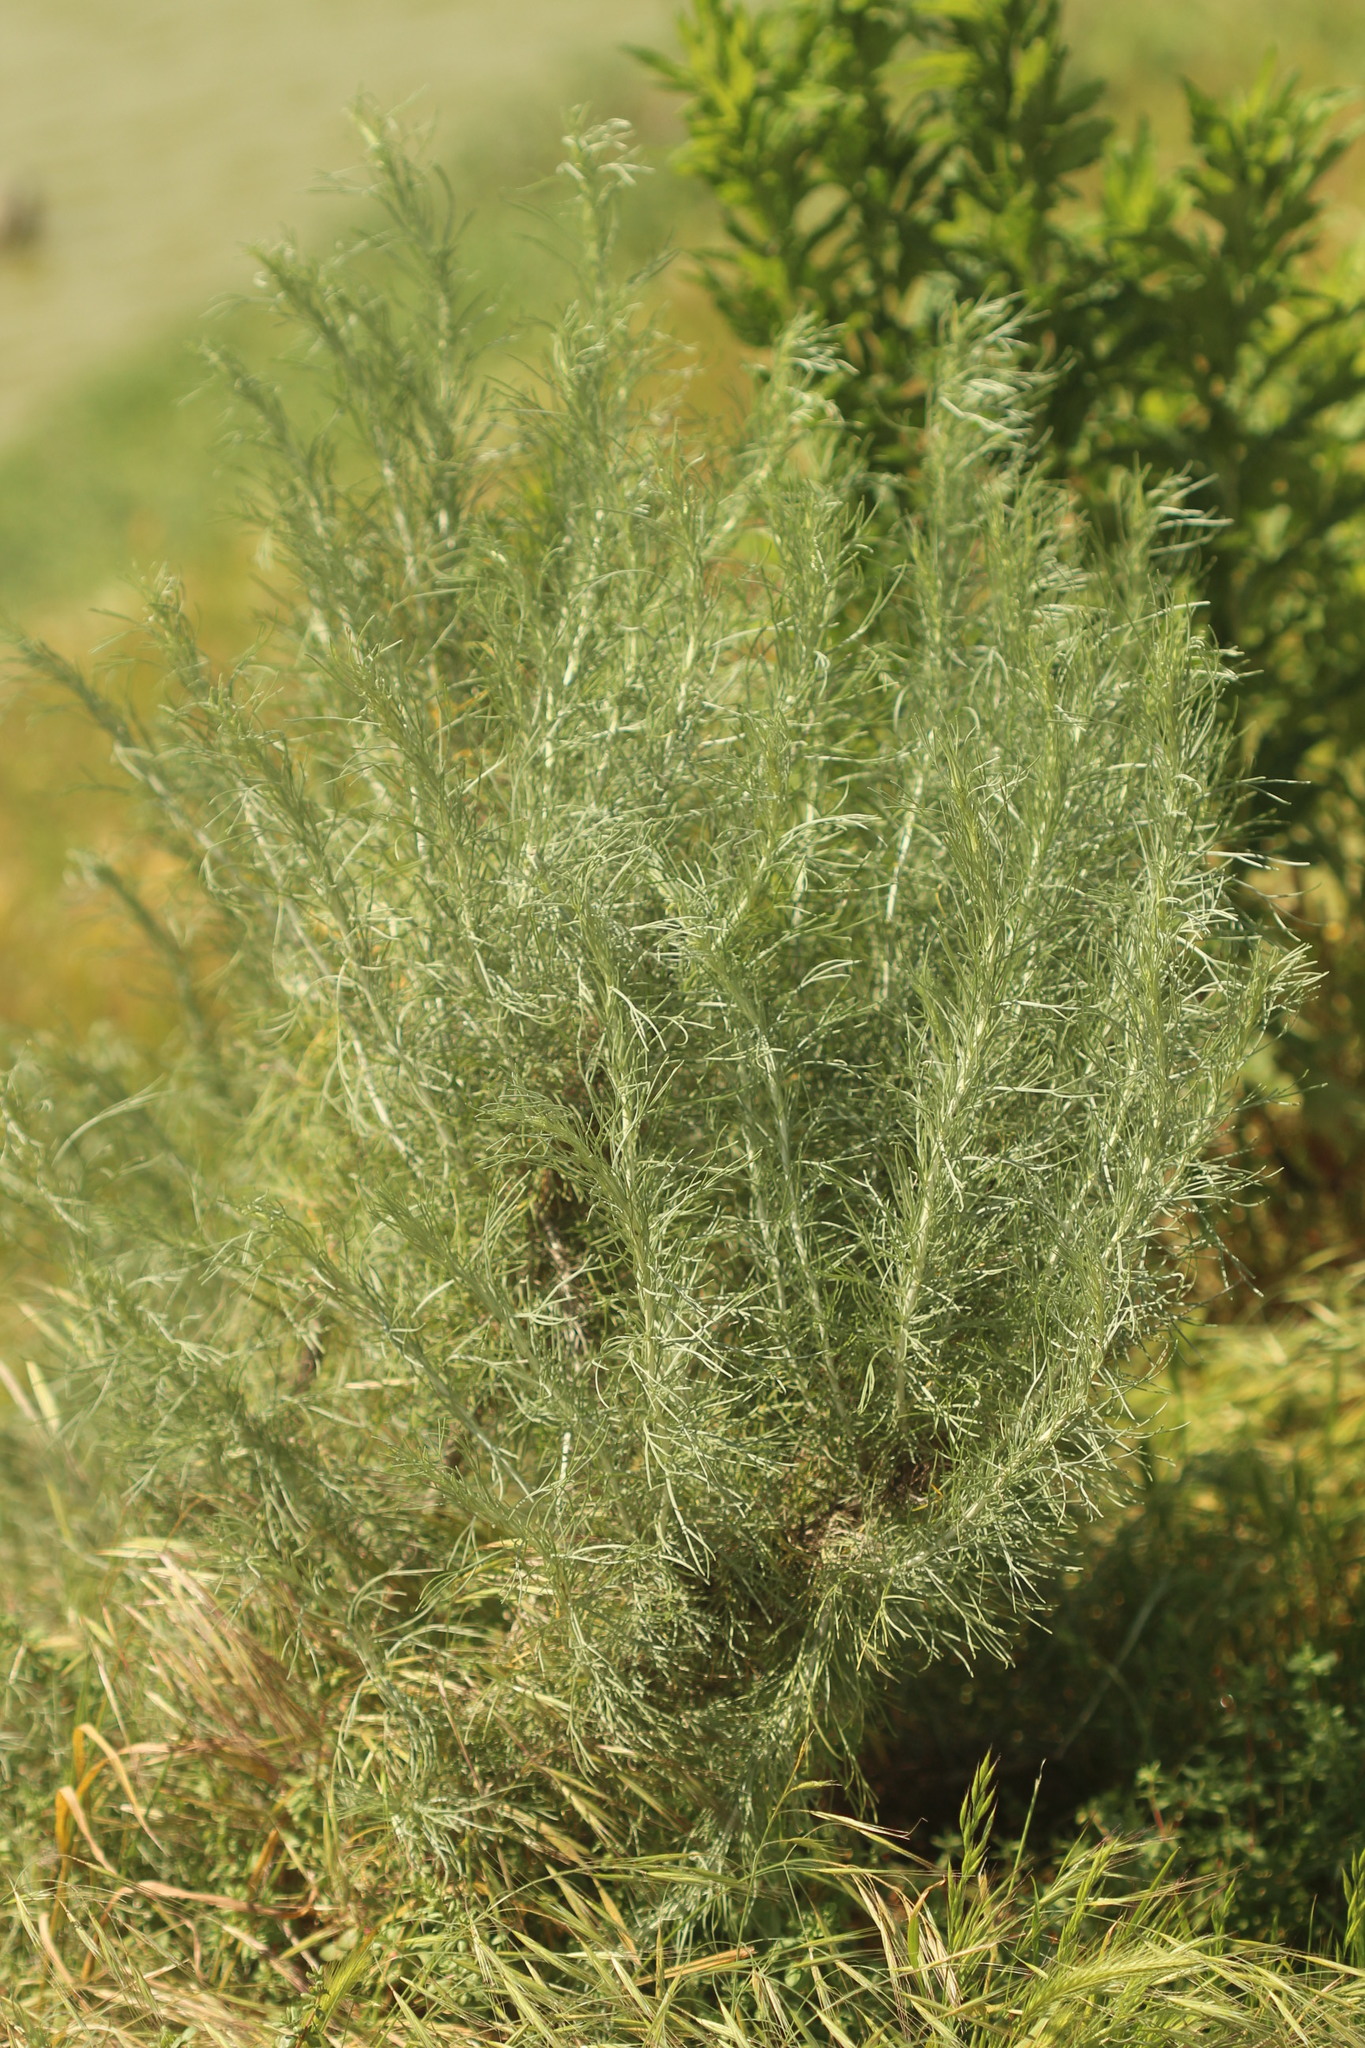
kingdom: Plantae
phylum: Tracheophyta
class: Magnoliopsida
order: Asterales
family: Asteraceae
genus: Artemisia
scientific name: Artemisia californica
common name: California sagebrush
